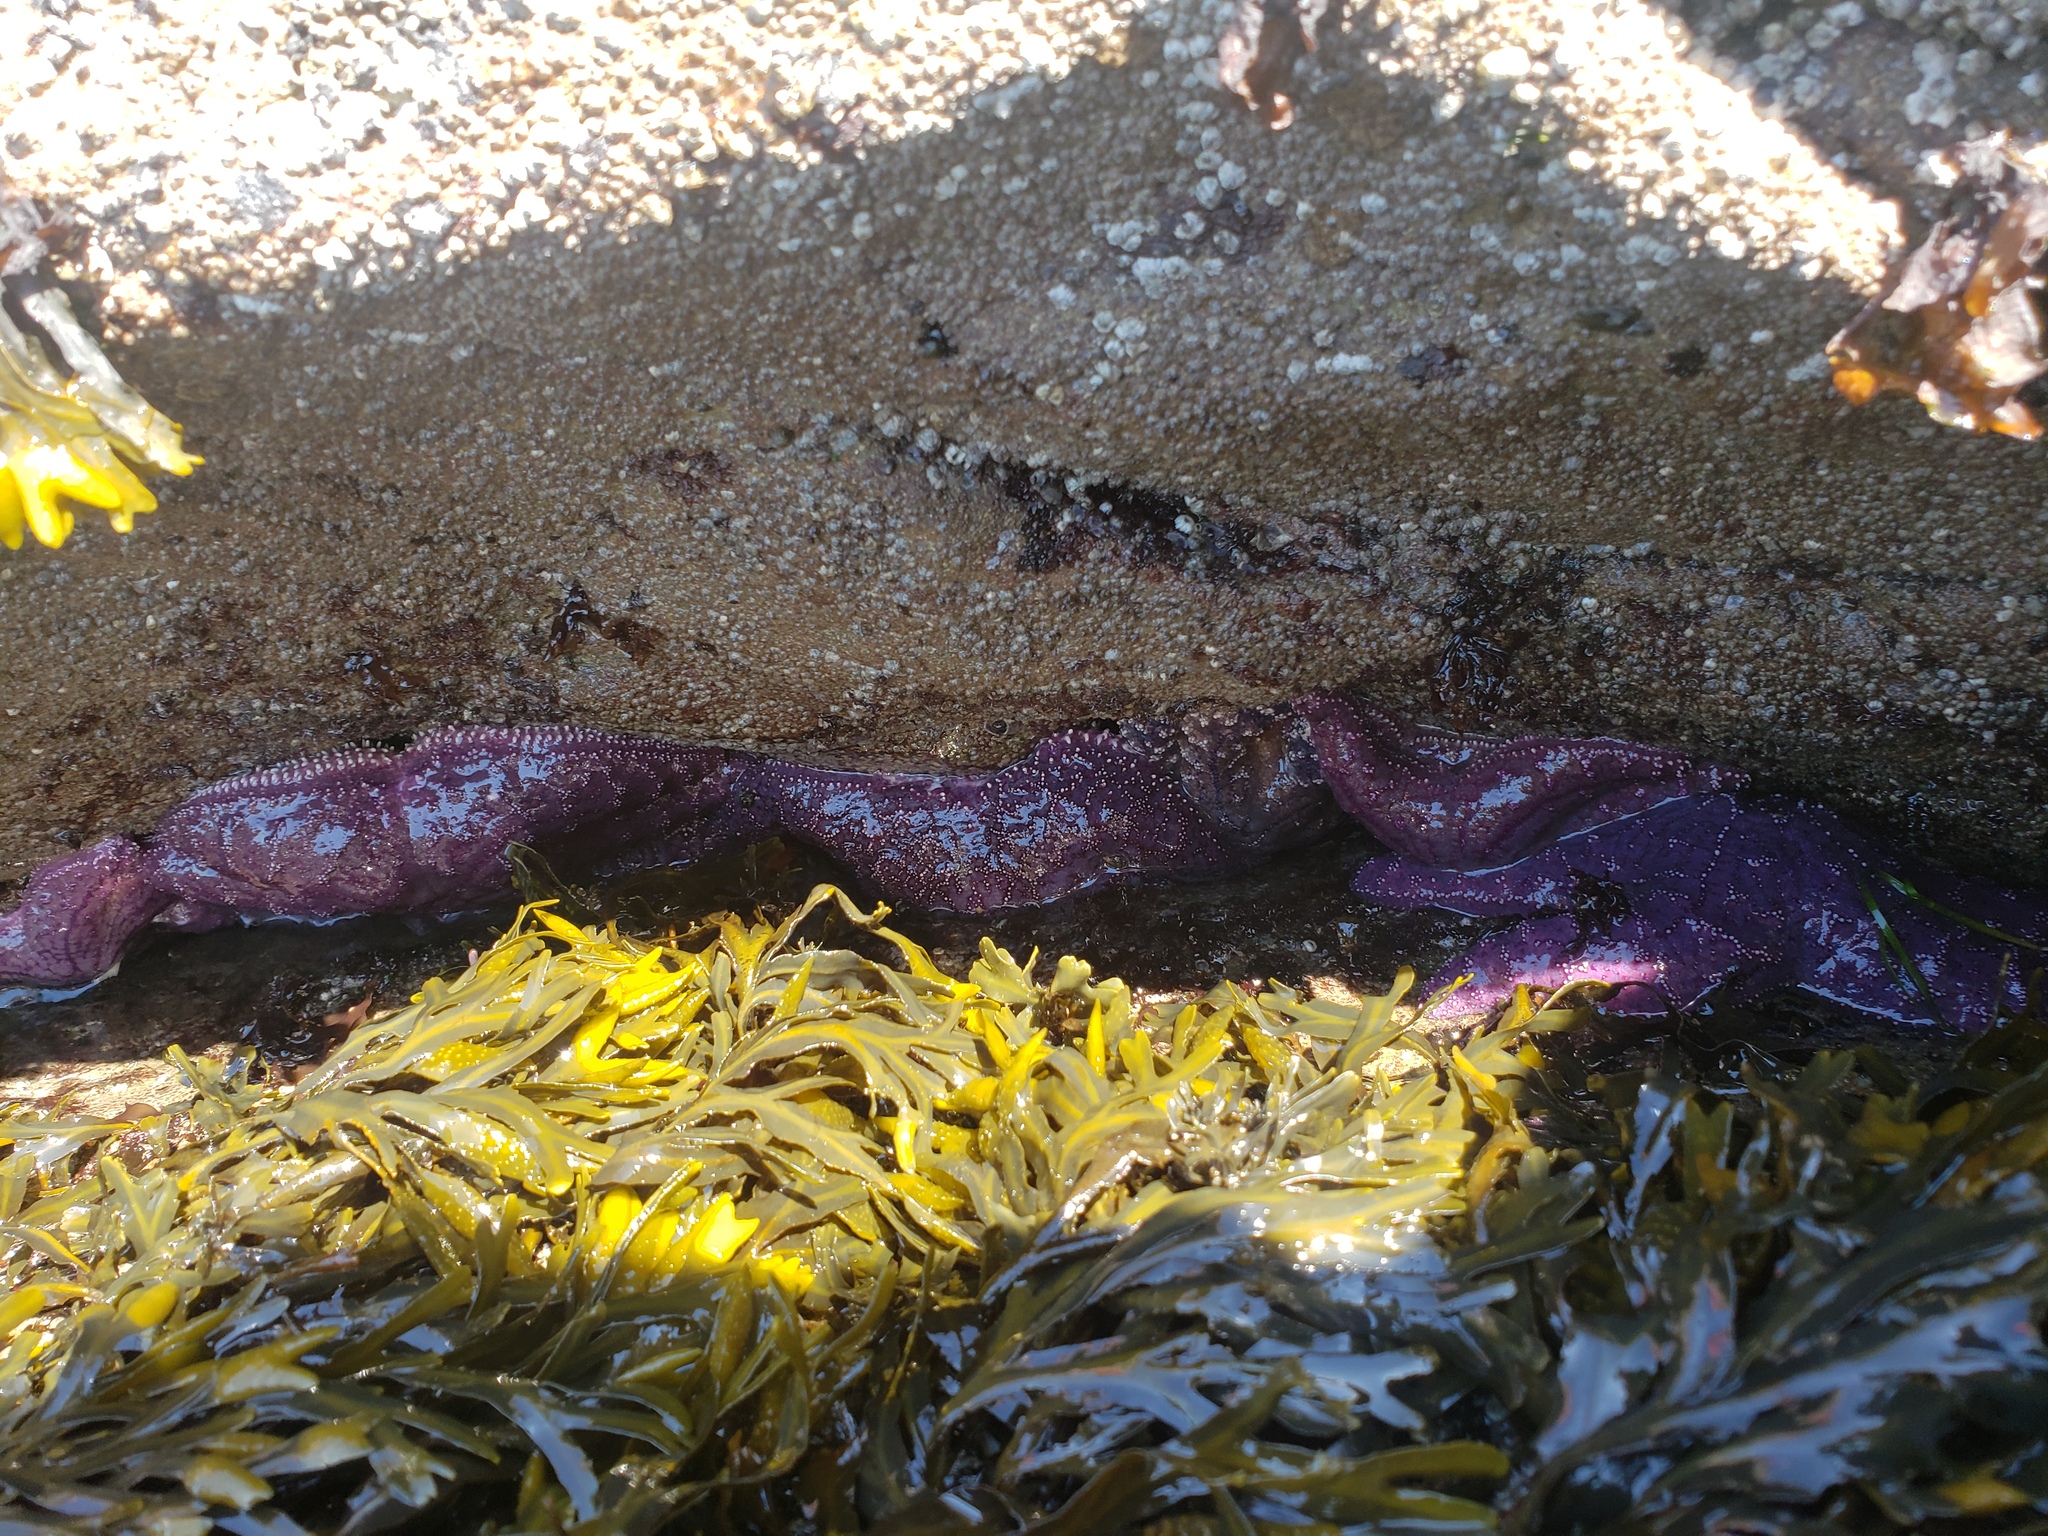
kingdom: Animalia
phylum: Echinodermata
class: Asteroidea
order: Forcipulatida
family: Asteriidae
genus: Pisaster
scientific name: Pisaster ochraceus
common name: Ochre stars
